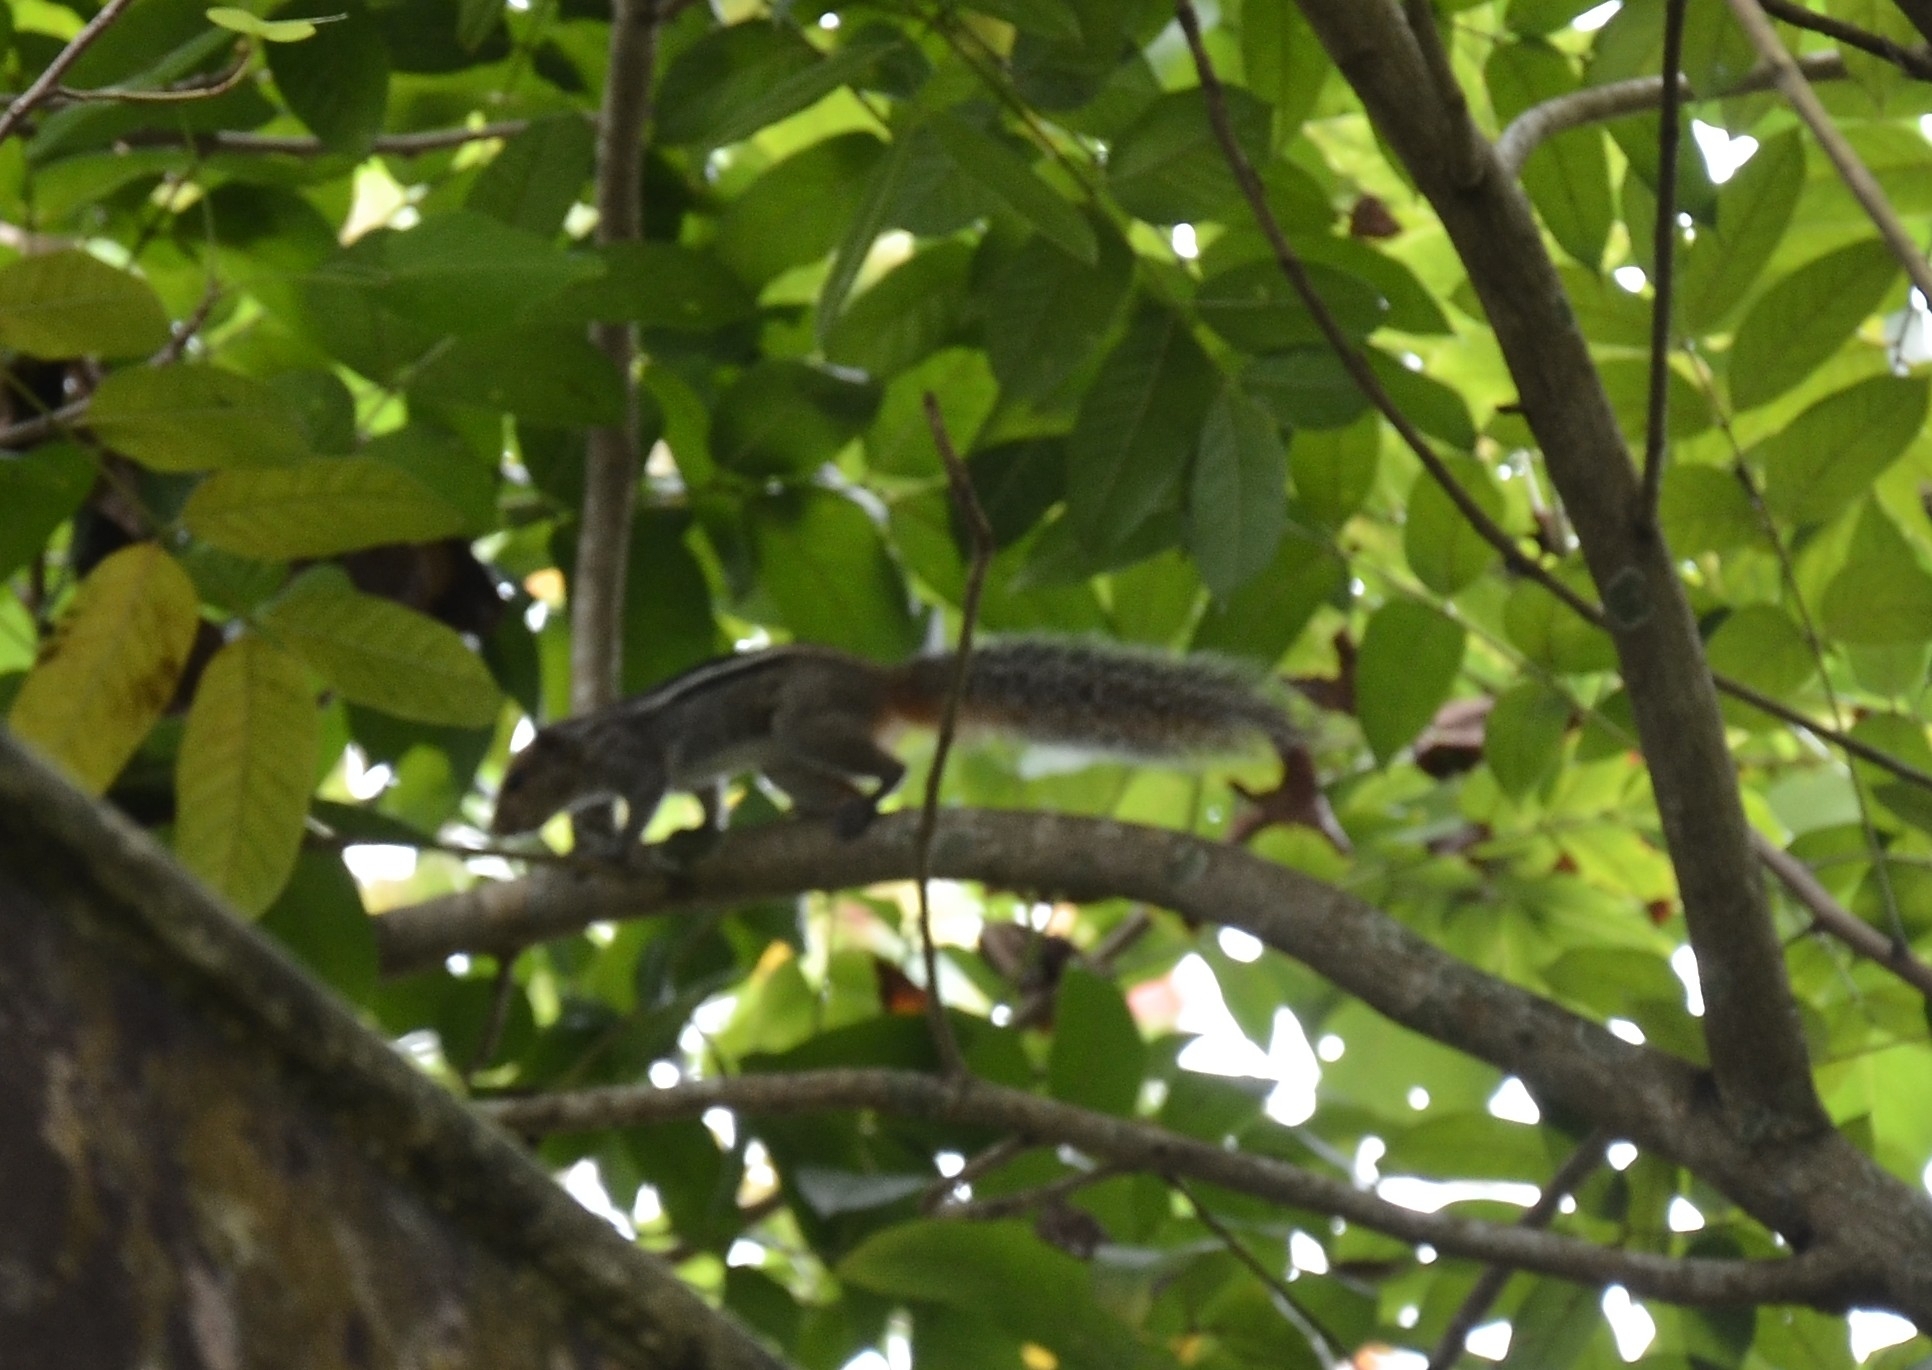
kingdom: Animalia
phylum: Chordata
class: Mammalia
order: Rodentia
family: Sciuridae
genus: Funambulus
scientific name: Funambulus tristriatus
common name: Jungle palm squirrel
